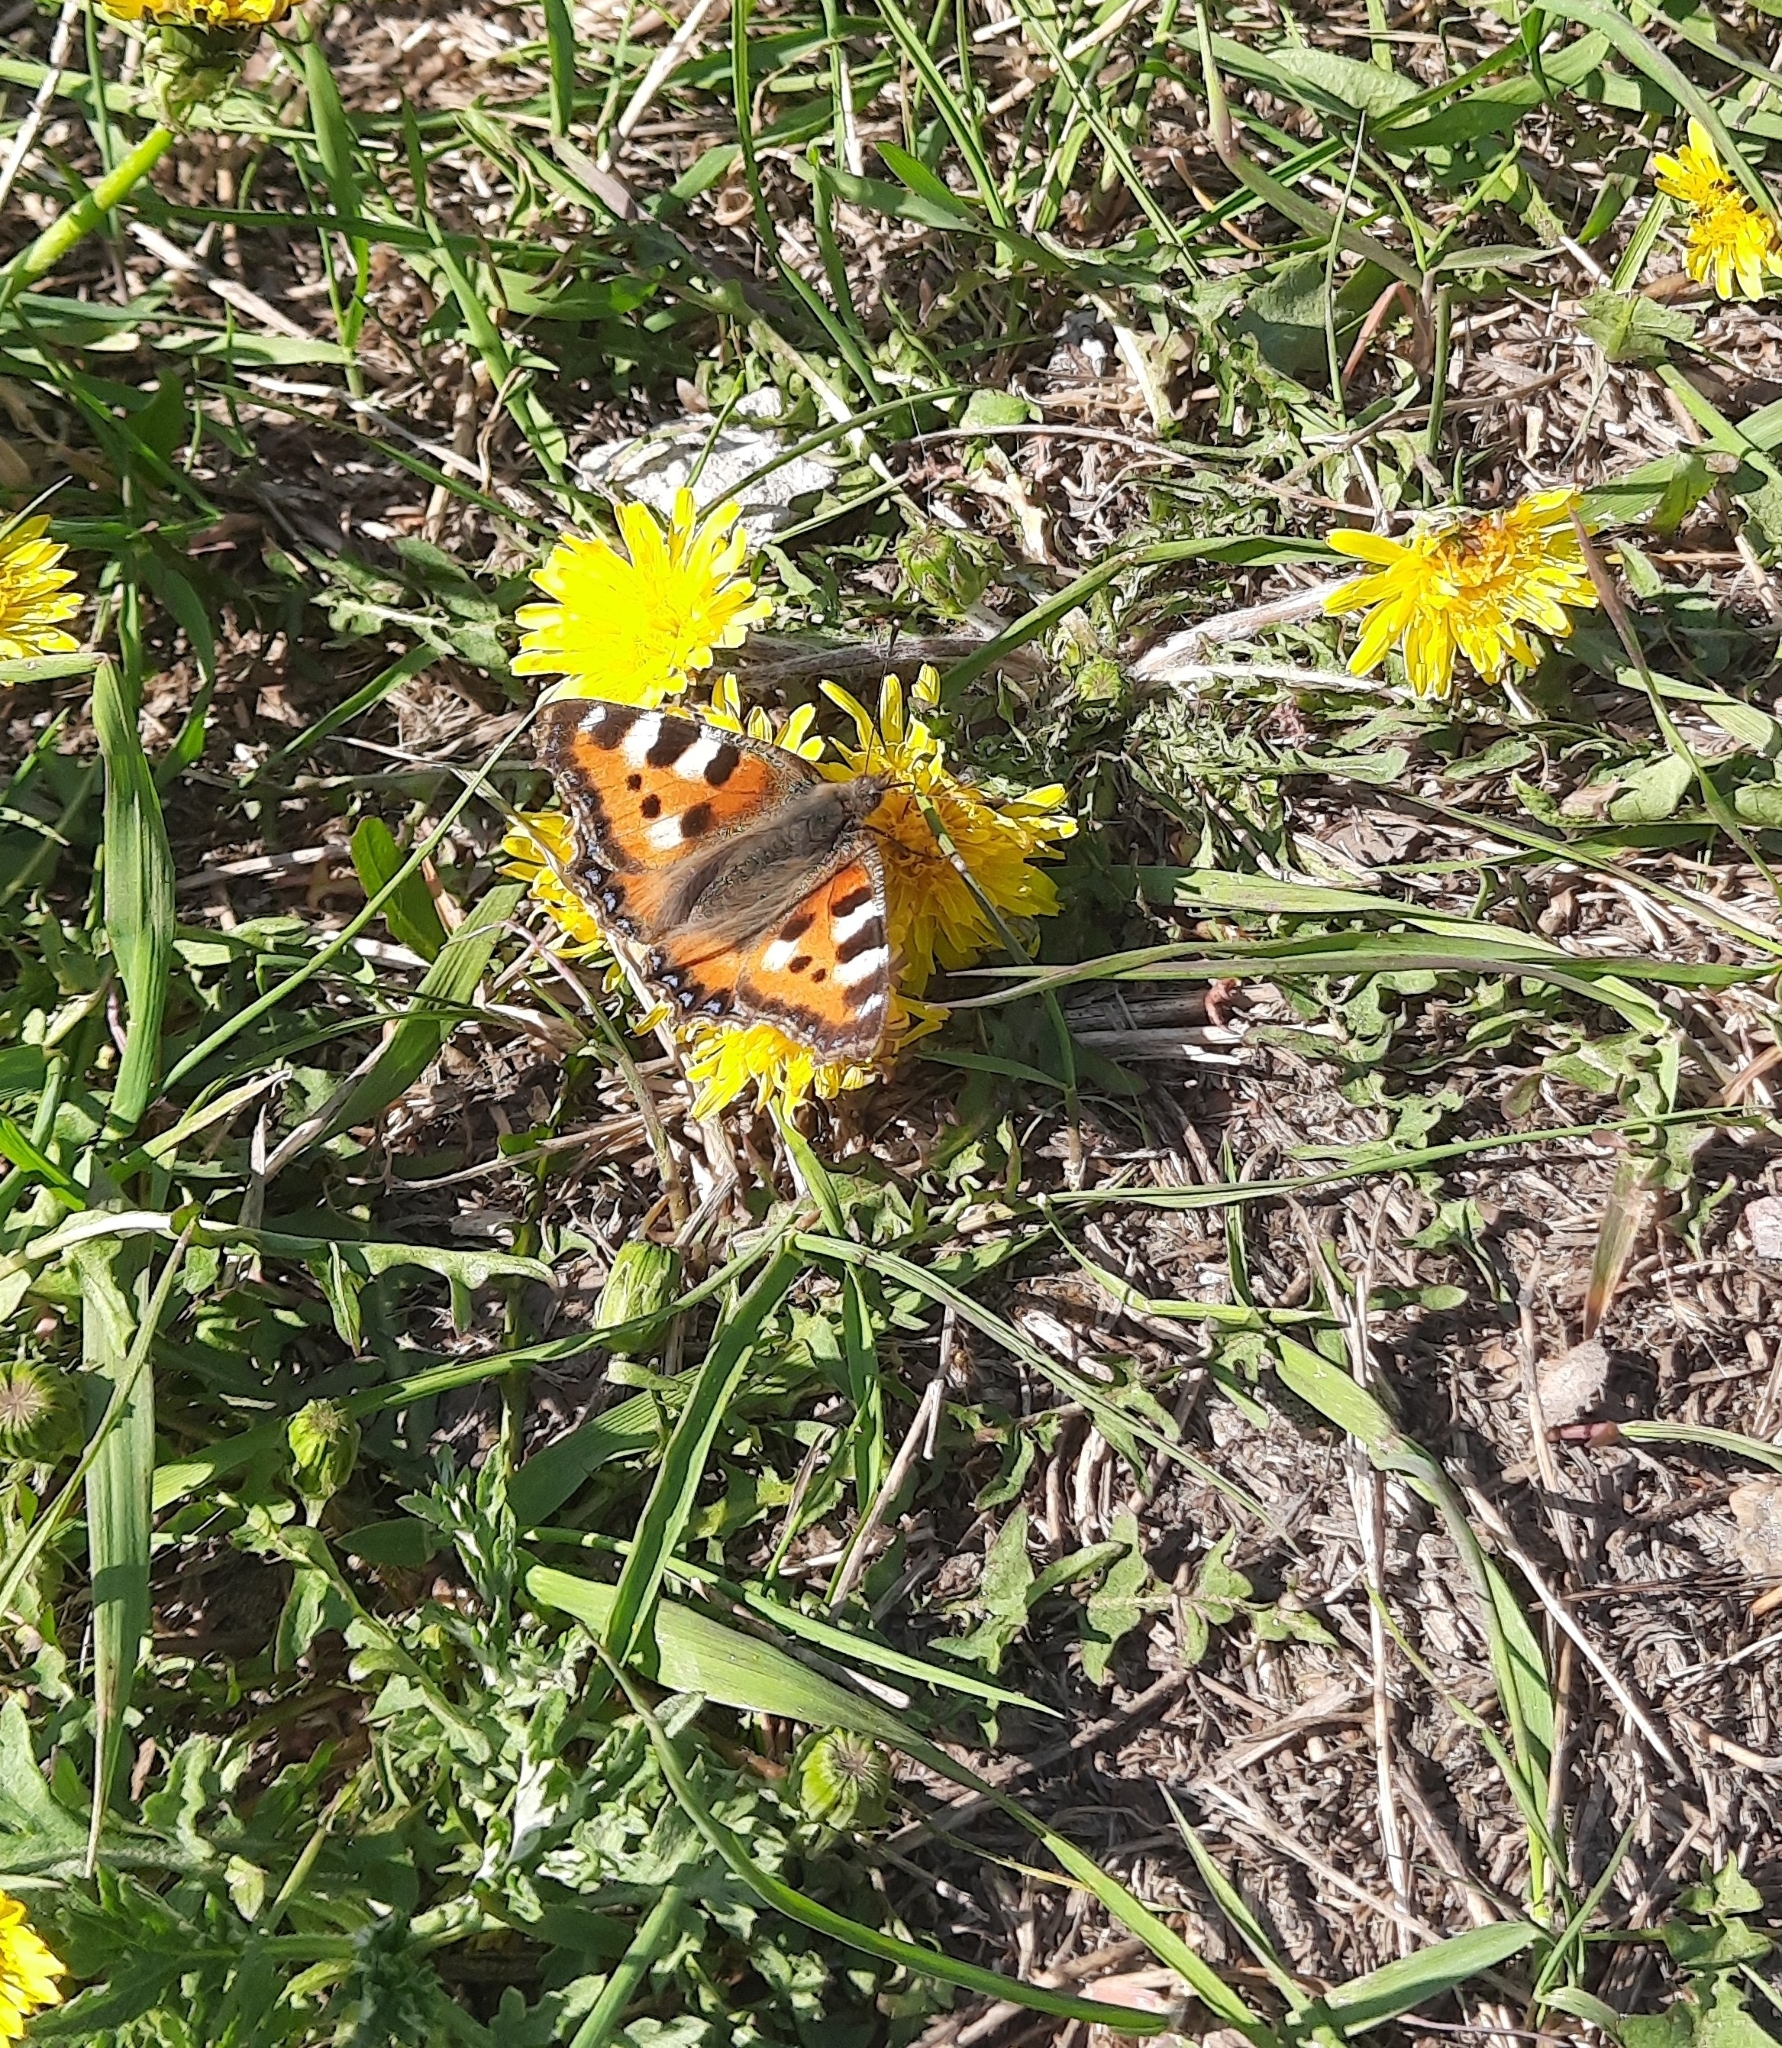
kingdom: Animalia
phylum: Arthropoda
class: Insecta
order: Lepidoptera
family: Nymphalidae
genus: Aglais
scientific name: Aglais urticae
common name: Small tortoiseshell
